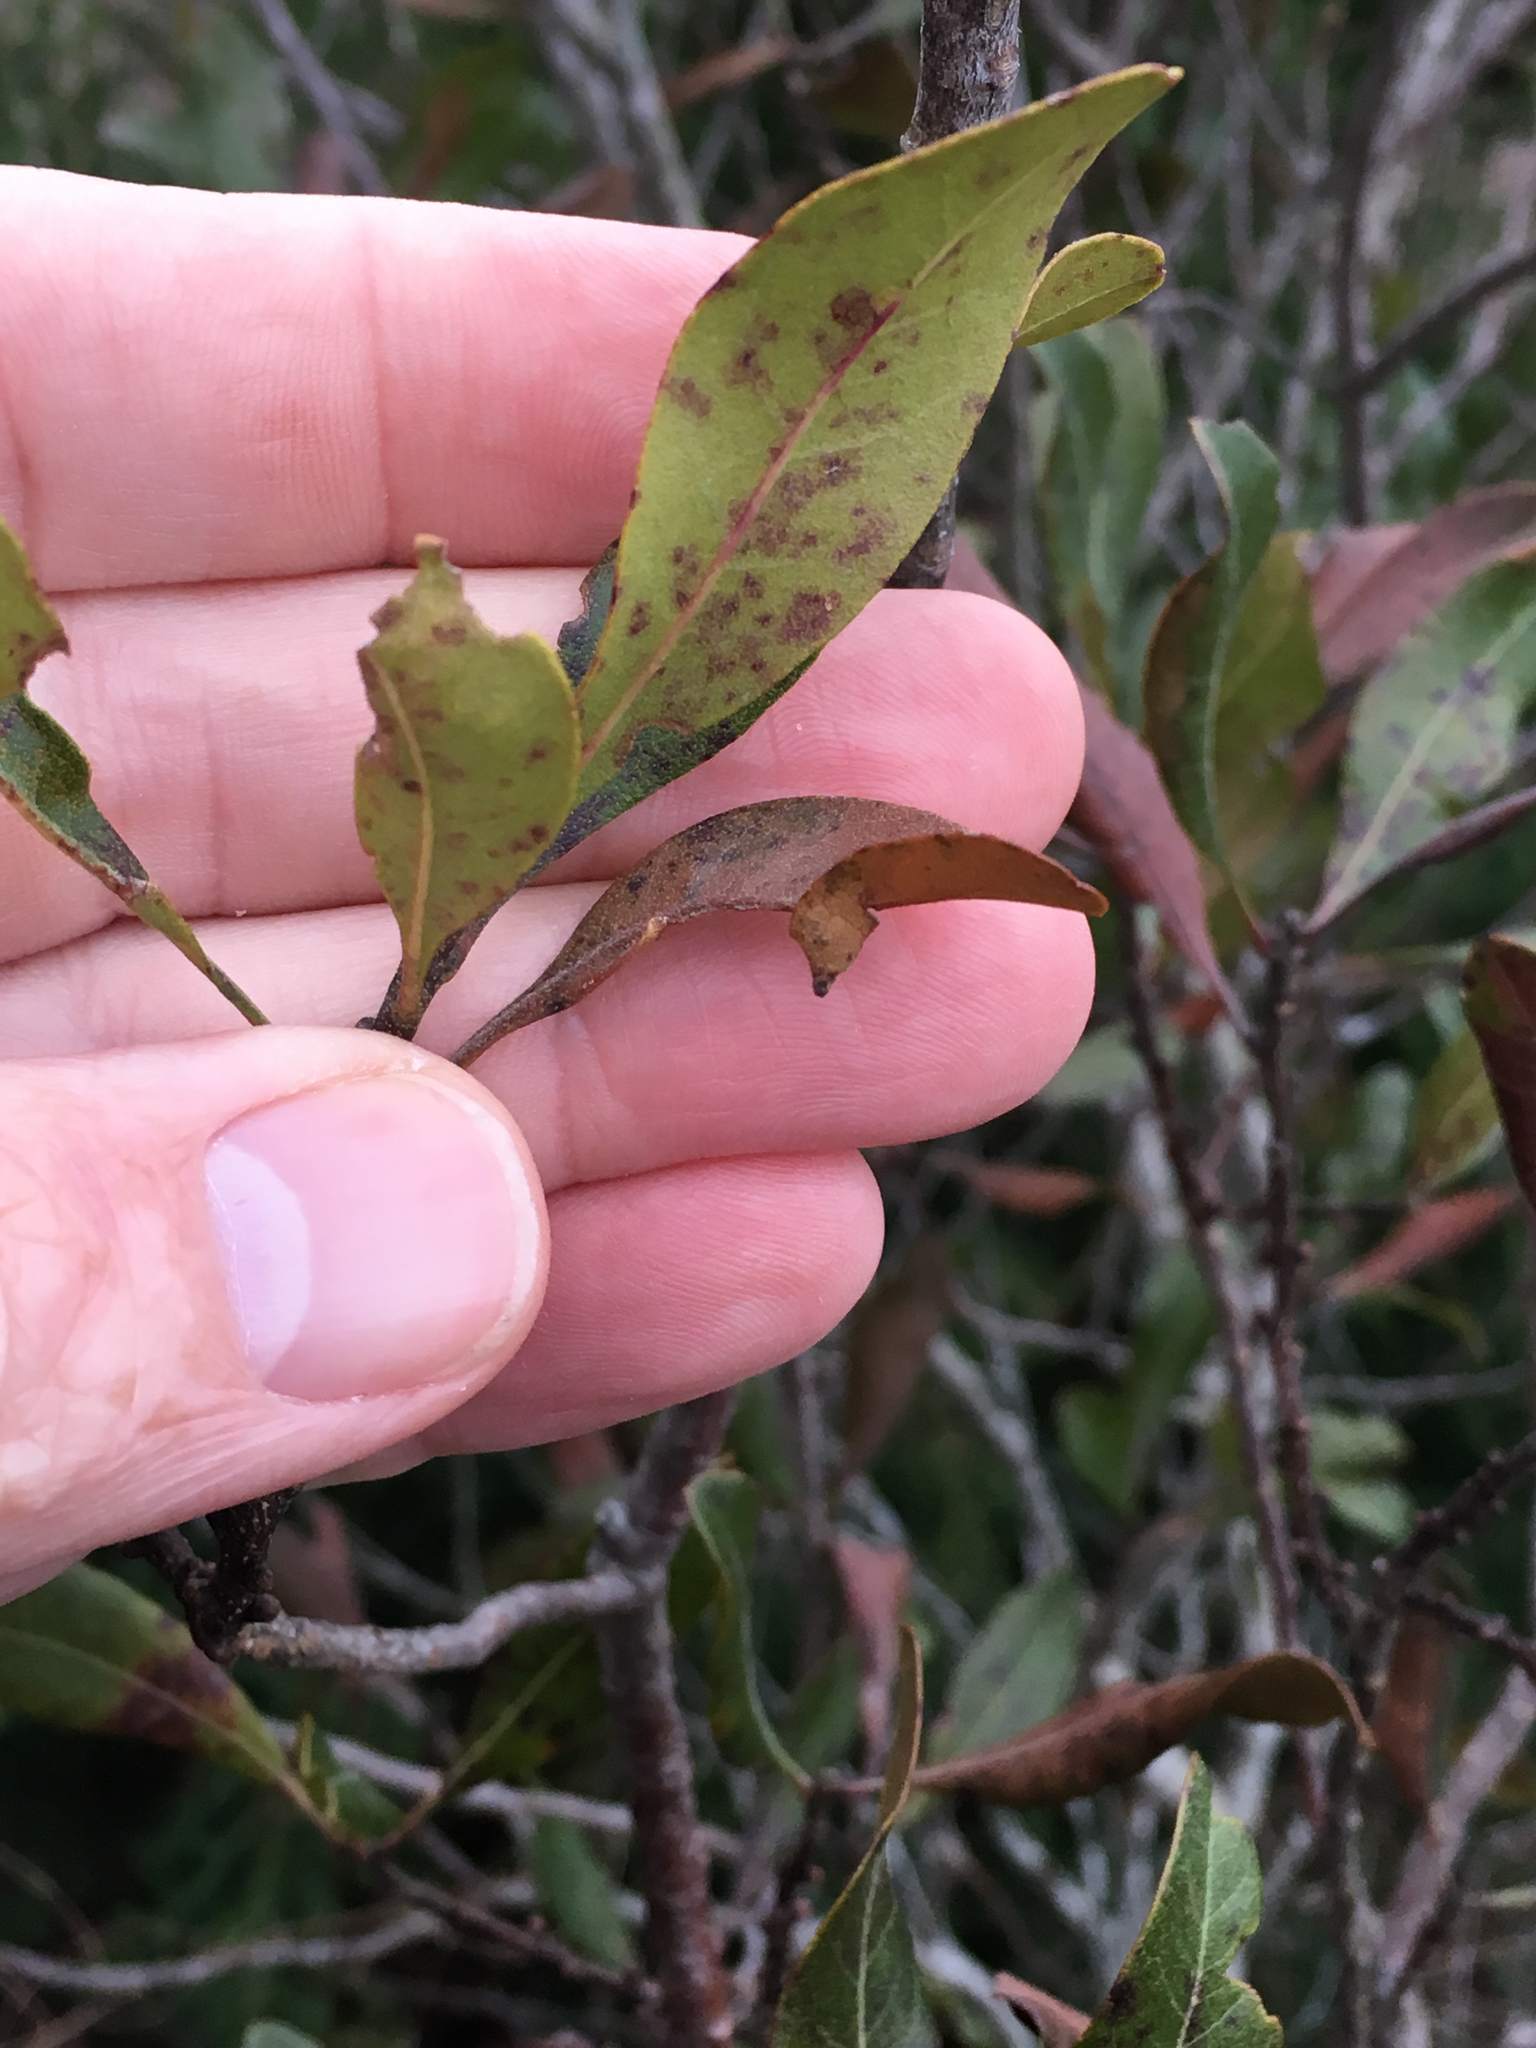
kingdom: Plantae
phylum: Tracheophyta
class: Magnoliopsida
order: Fagales
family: Myricaceae
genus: Morella
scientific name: Morella pensylvanica
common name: Northern bayberry
